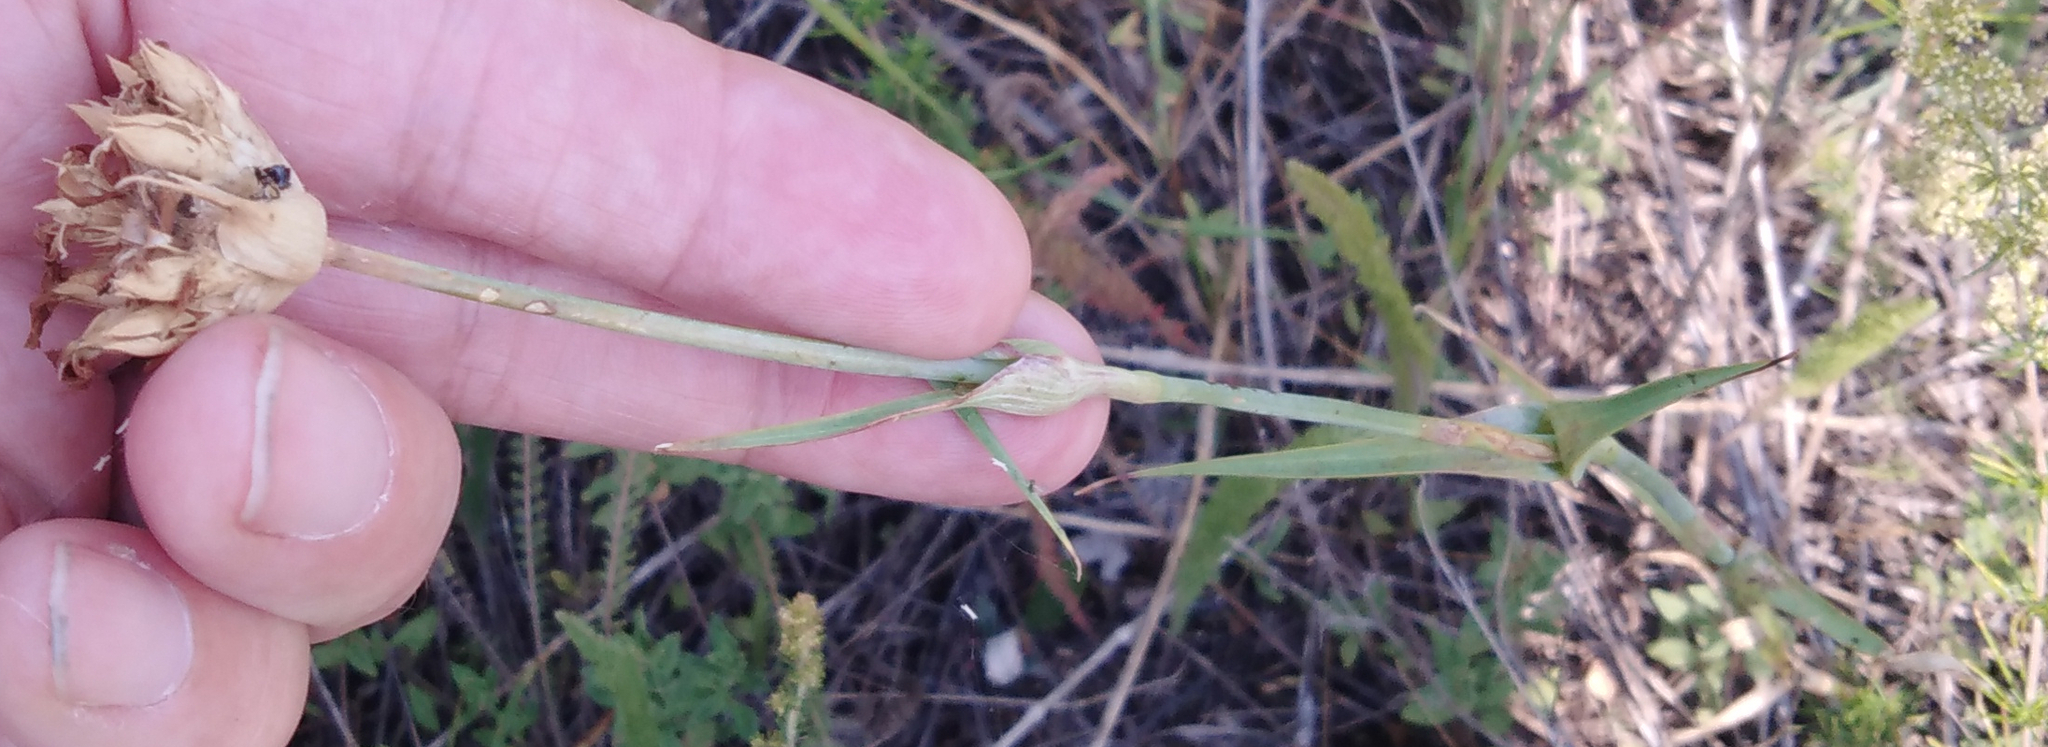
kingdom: Plantae
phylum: Tracheophyta
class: Magnoliopsida
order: Caryophyllales
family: Caryophyllaceae
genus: Dianthus
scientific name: Dianthus capitatus
